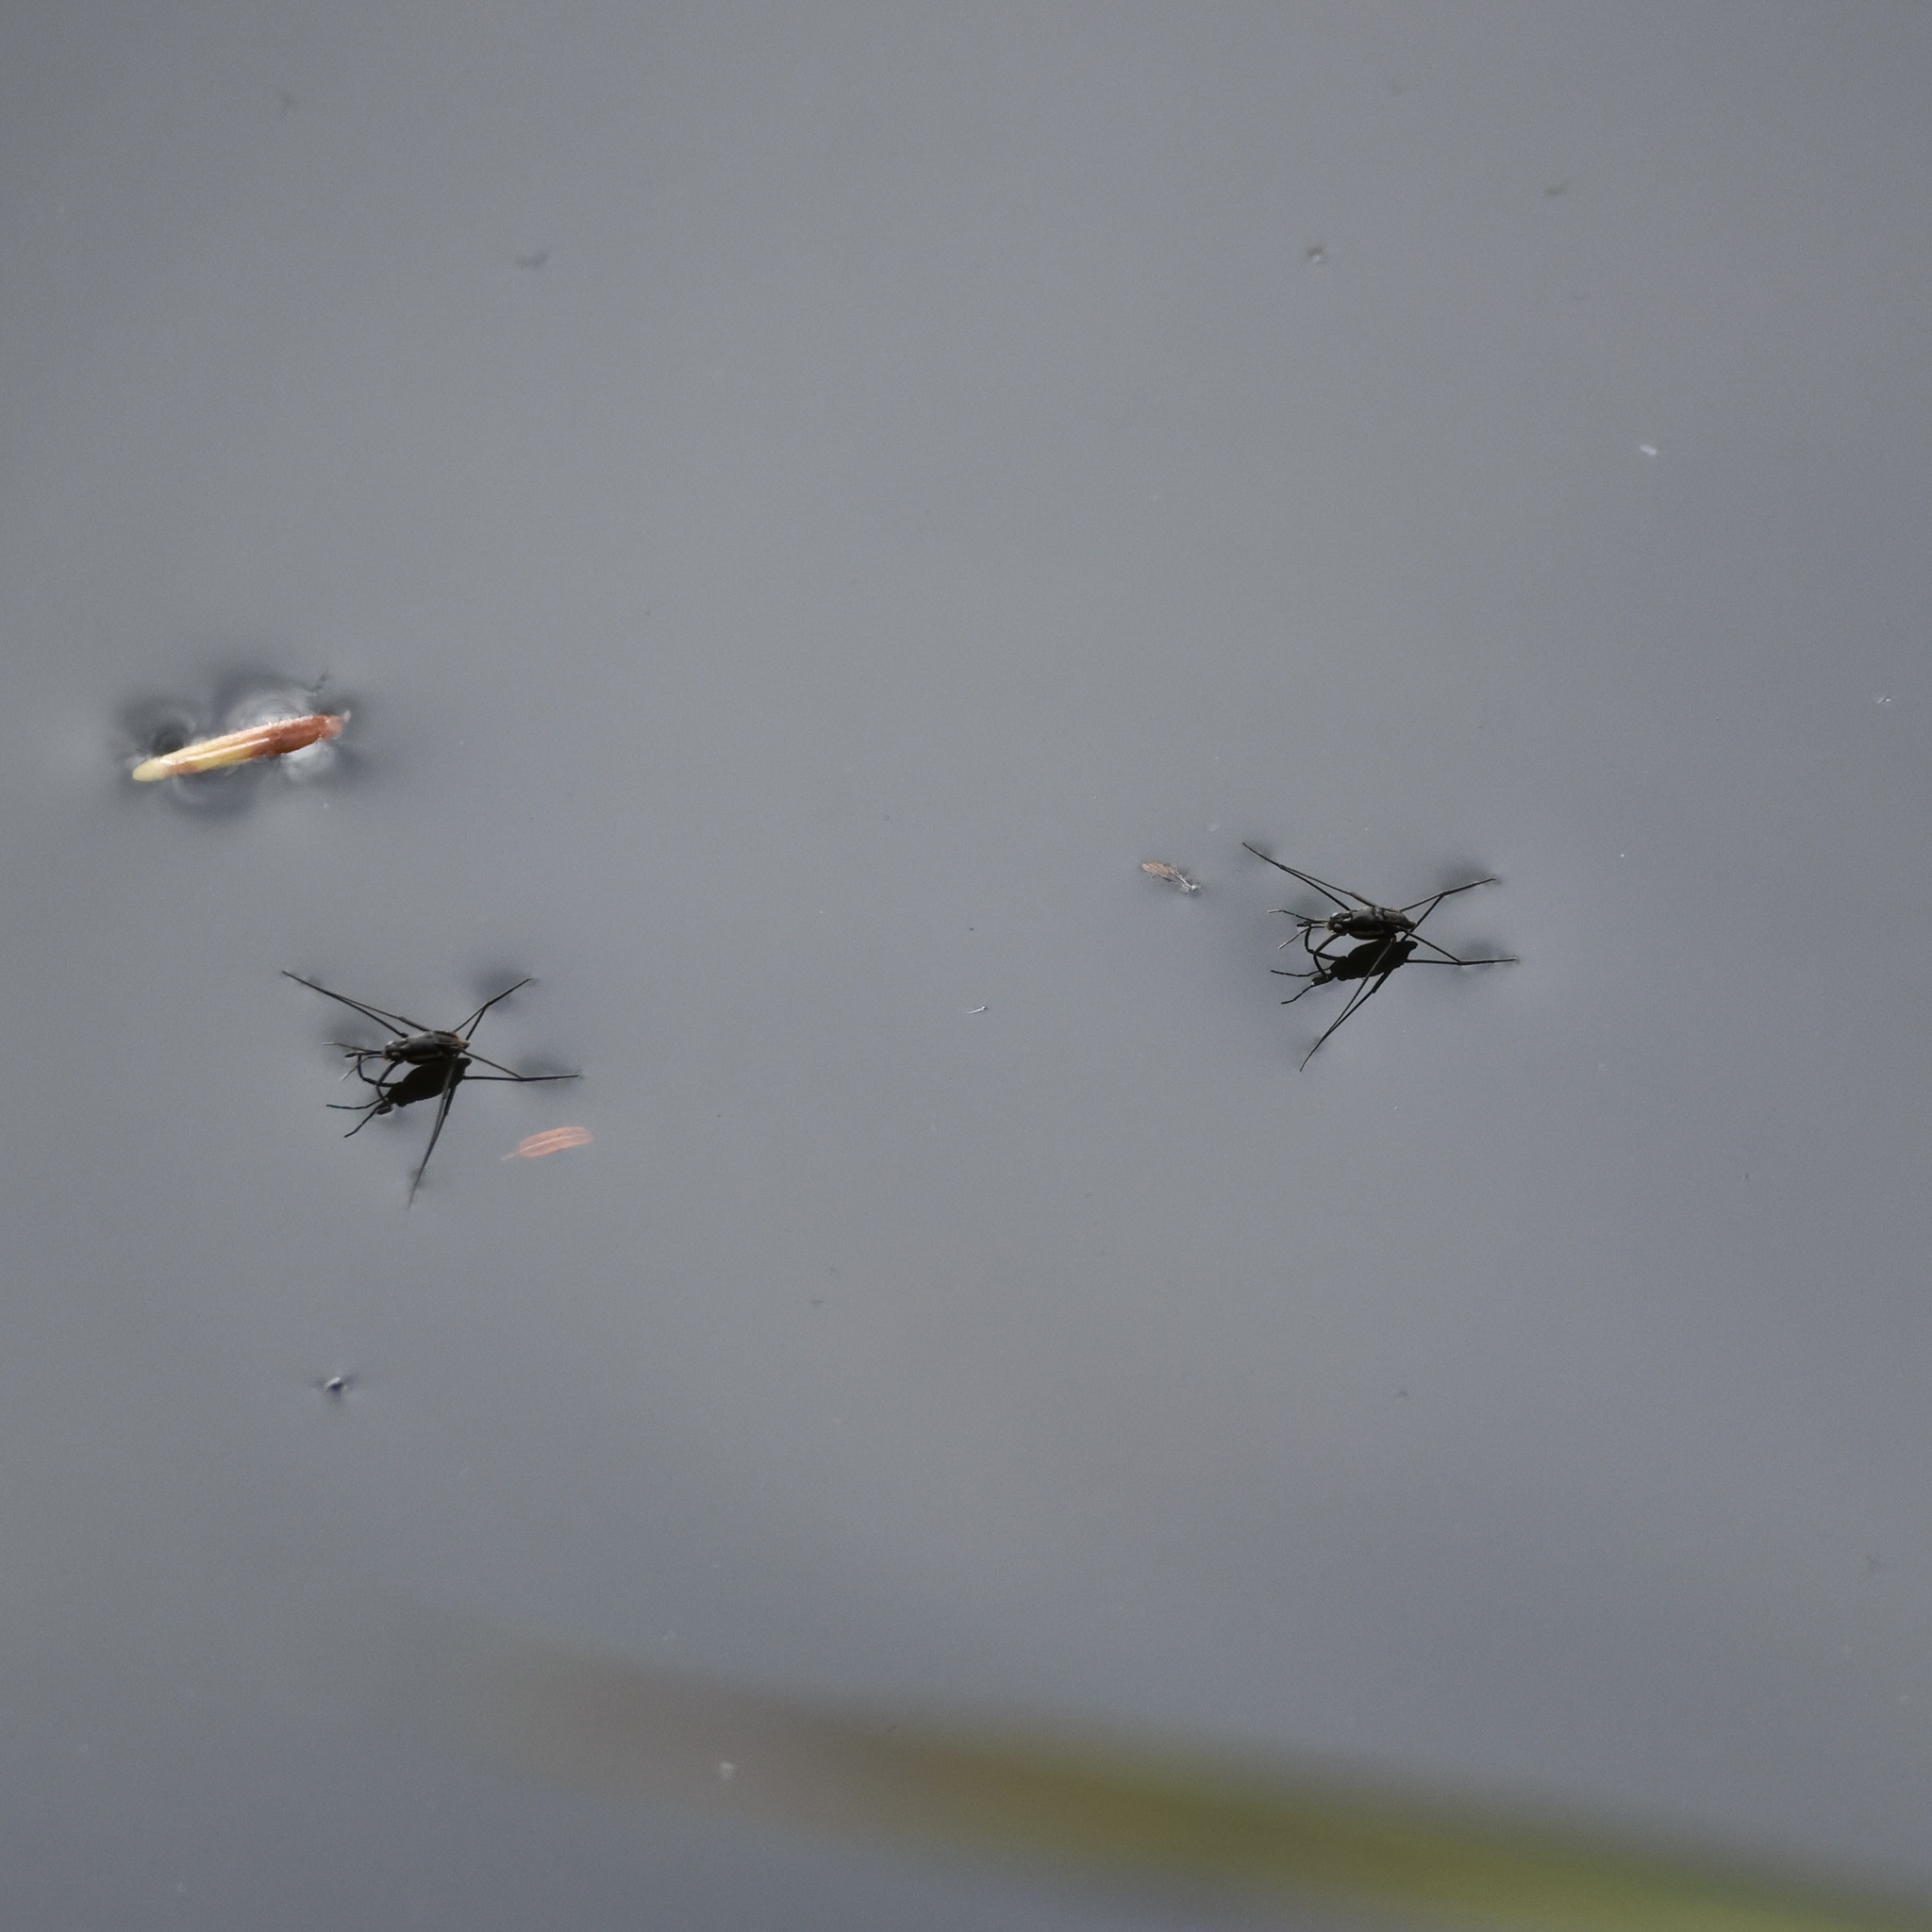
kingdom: Animalia
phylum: Arthropoda
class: Insecta
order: Hemiptera
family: Gerridae
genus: Trepobates
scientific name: Trepobates subnitidus
